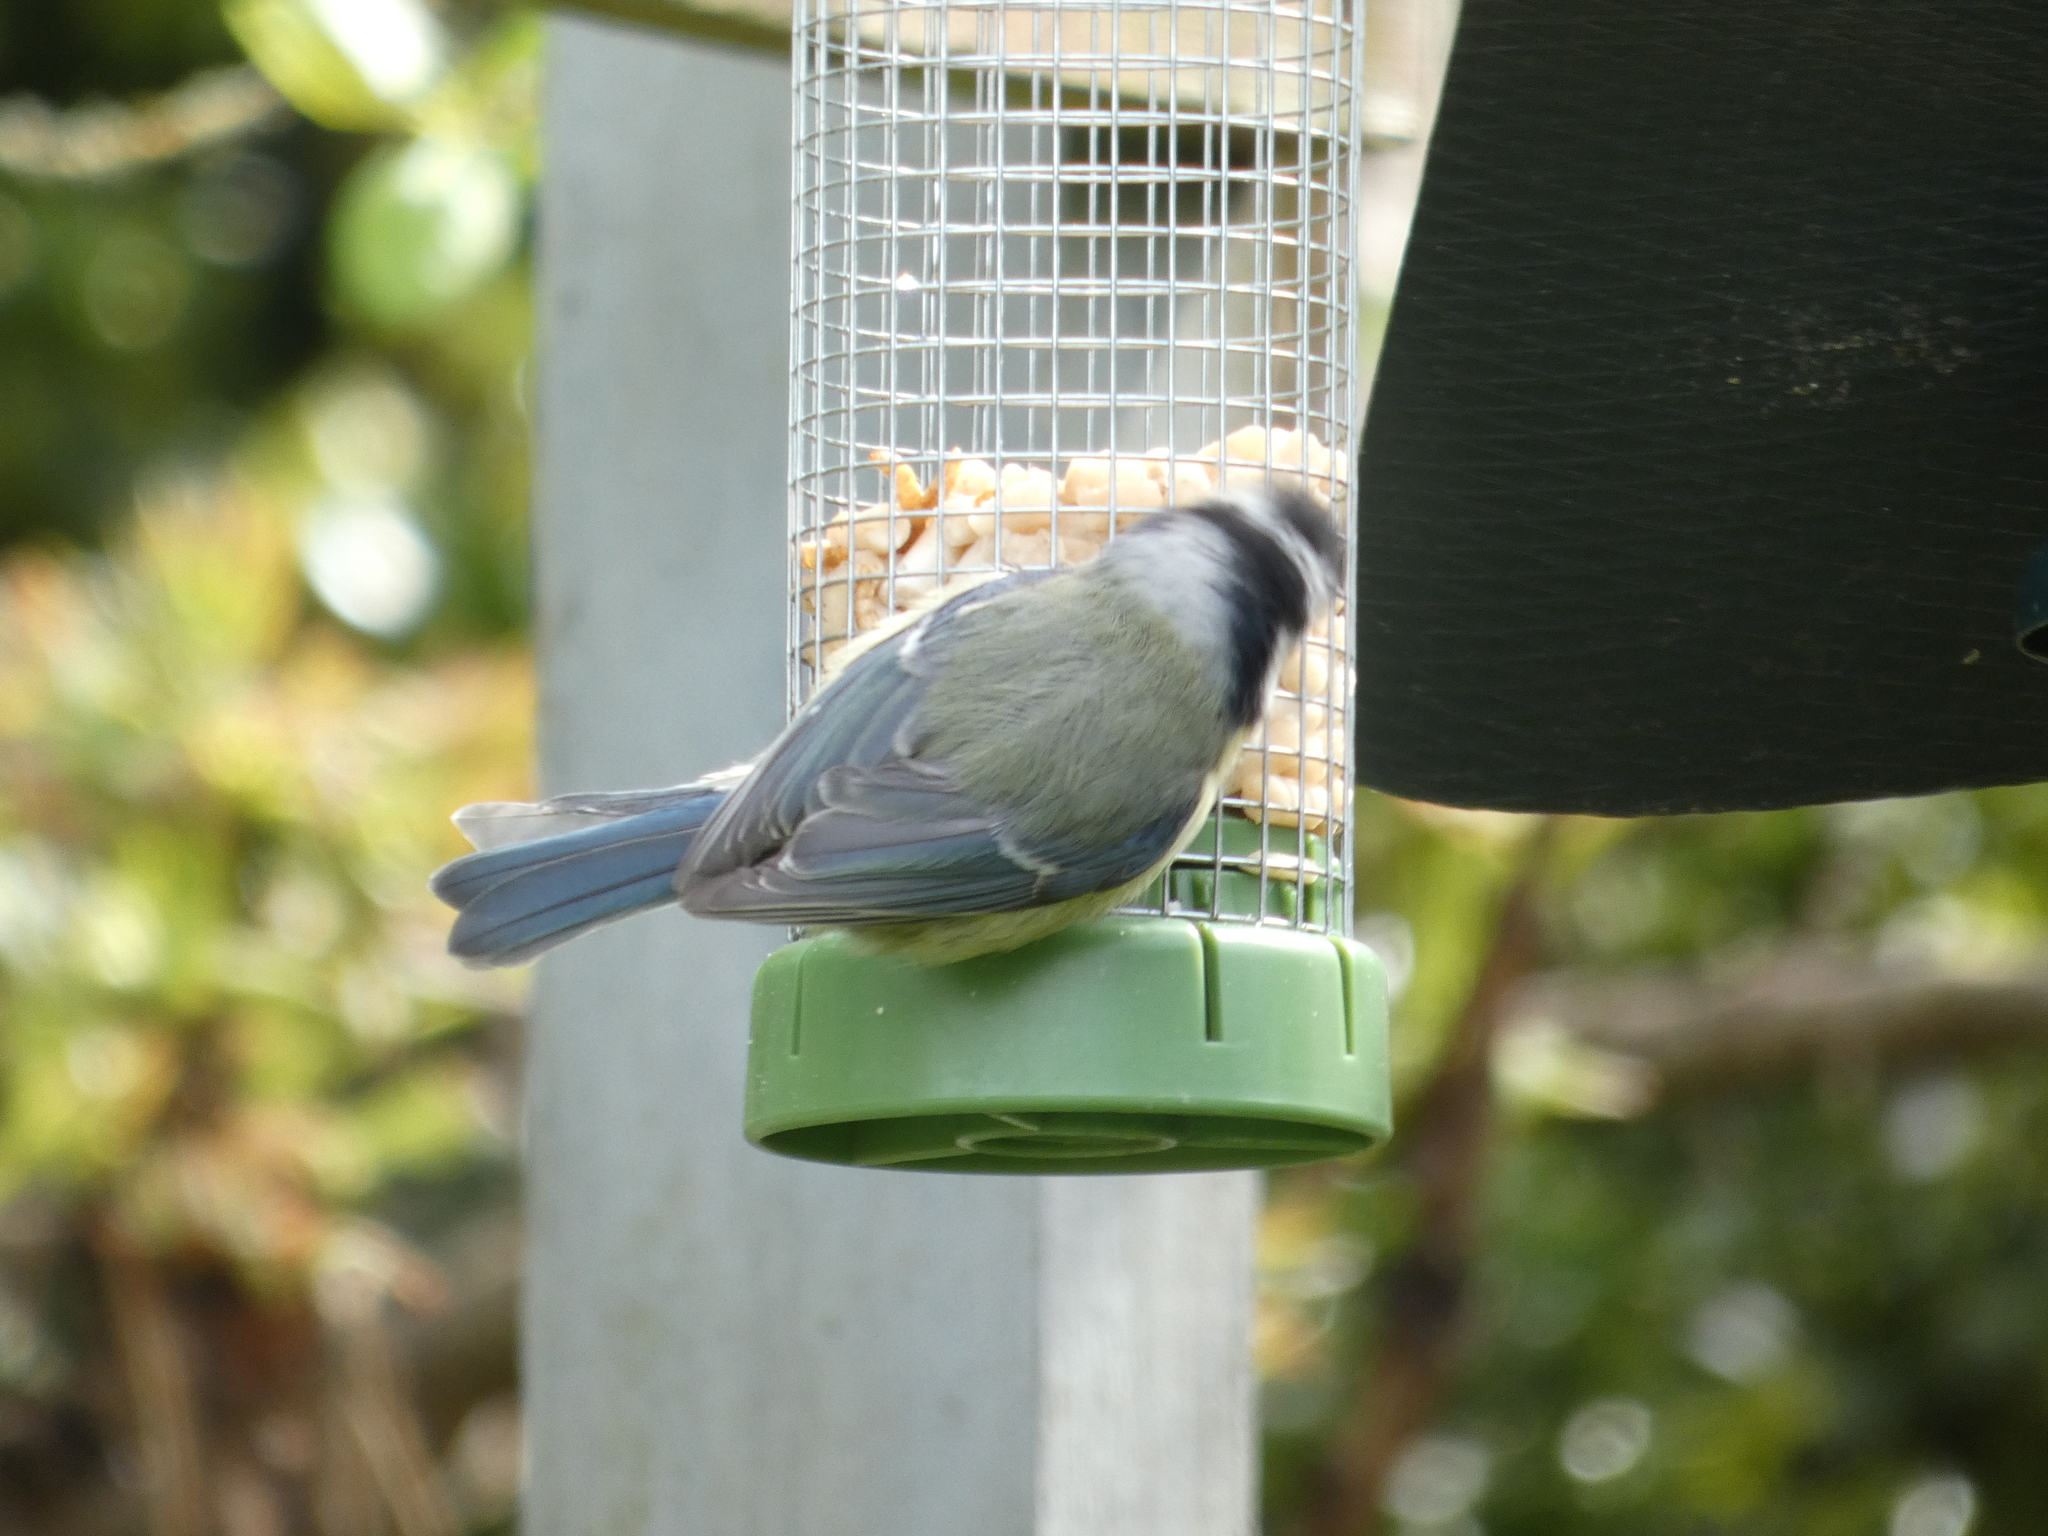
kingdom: Animalia
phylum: Chordata
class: Aves
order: Passeriformes
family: Paridae
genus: Cyanistes
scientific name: Cyanistes caeruleus
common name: Eurasian blue tit
